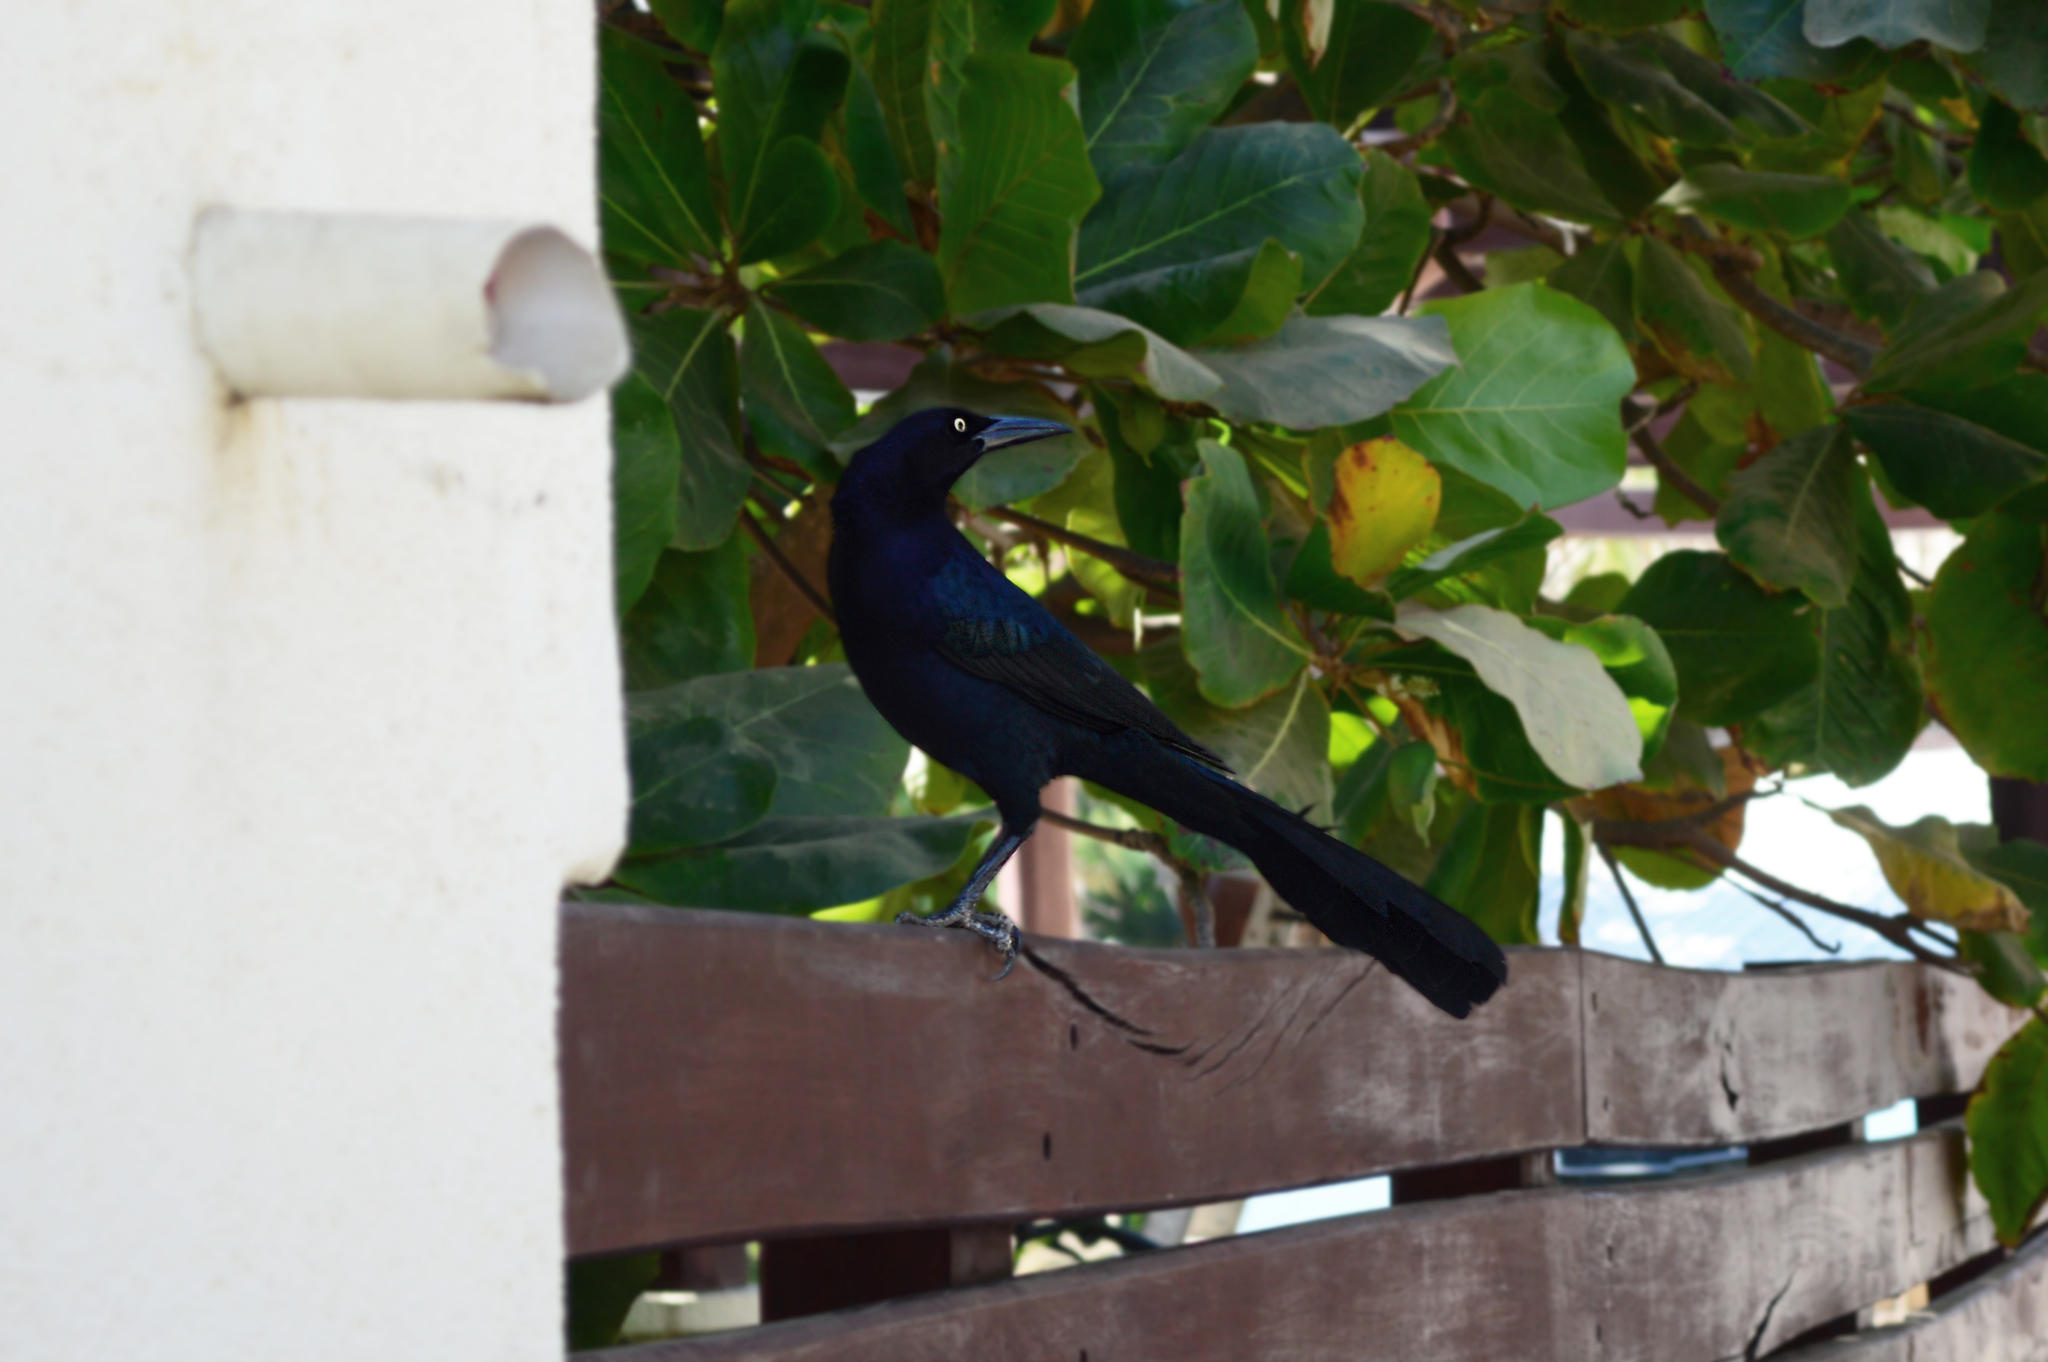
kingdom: Animalia
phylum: Chordata
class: Aves
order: Passeriformes
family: Icteridae
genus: Quiscalus
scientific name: Quiscalus mexicanus
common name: Great-tailed grackle
